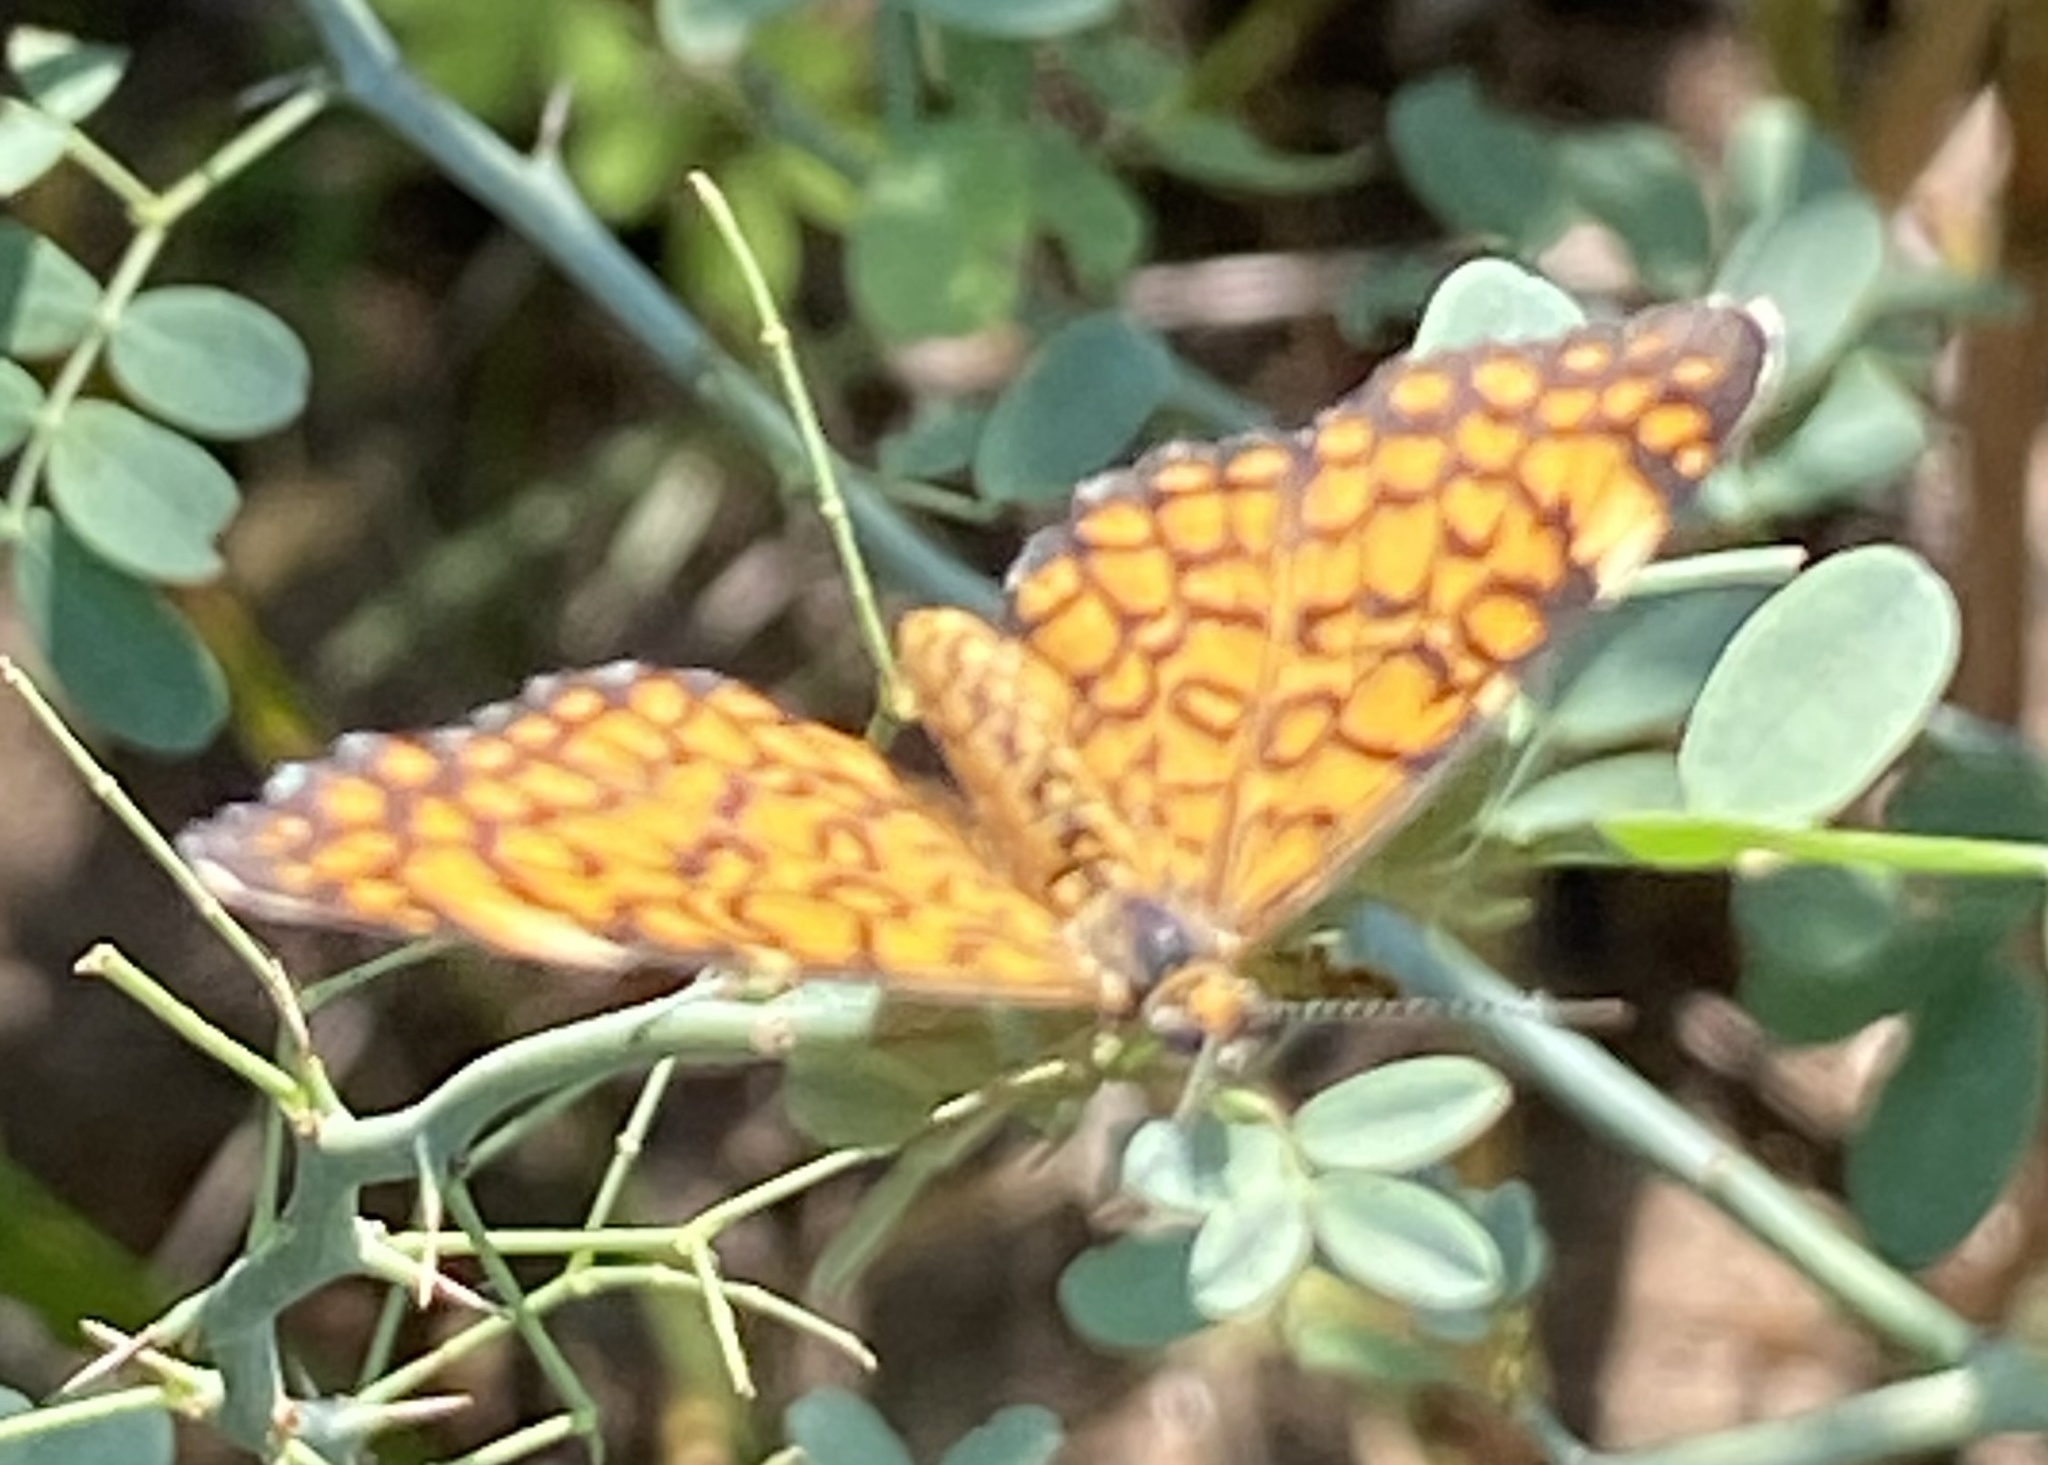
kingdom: Animalia
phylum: Arthropoda
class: Insecta
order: Lepidoptera
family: Nymphalidae
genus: Dymasia
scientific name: Dymasia dymas
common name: Tiny checkerspot
